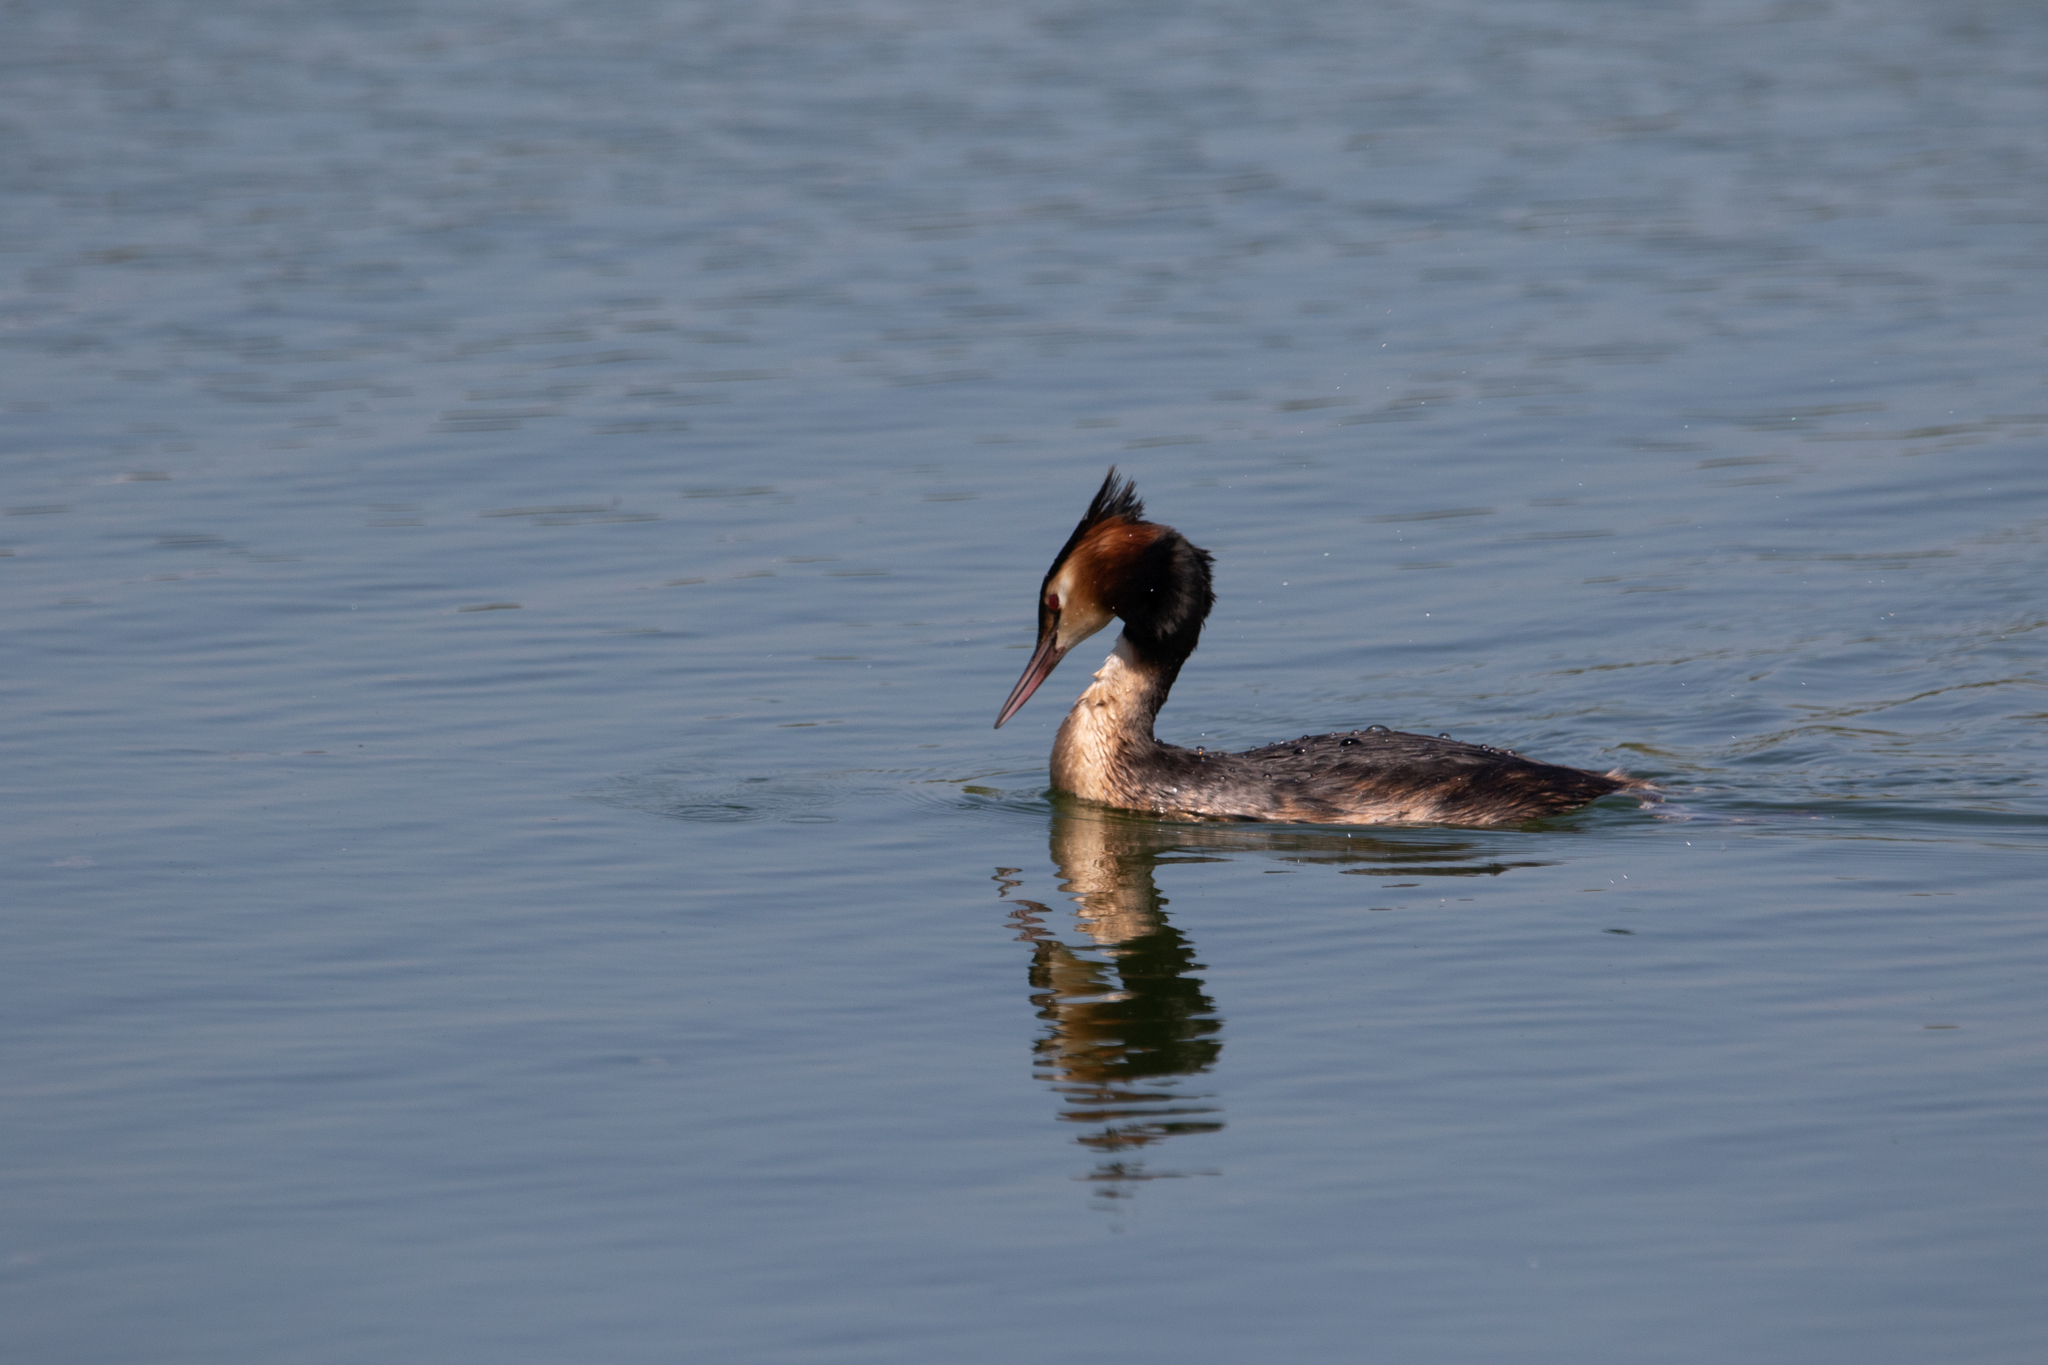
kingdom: Animalia
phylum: Chordata
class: Aves
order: Podicipediformes
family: Podicipedidae
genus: Podiceps
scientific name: Podiceps cristatus
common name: Great crested grebe
